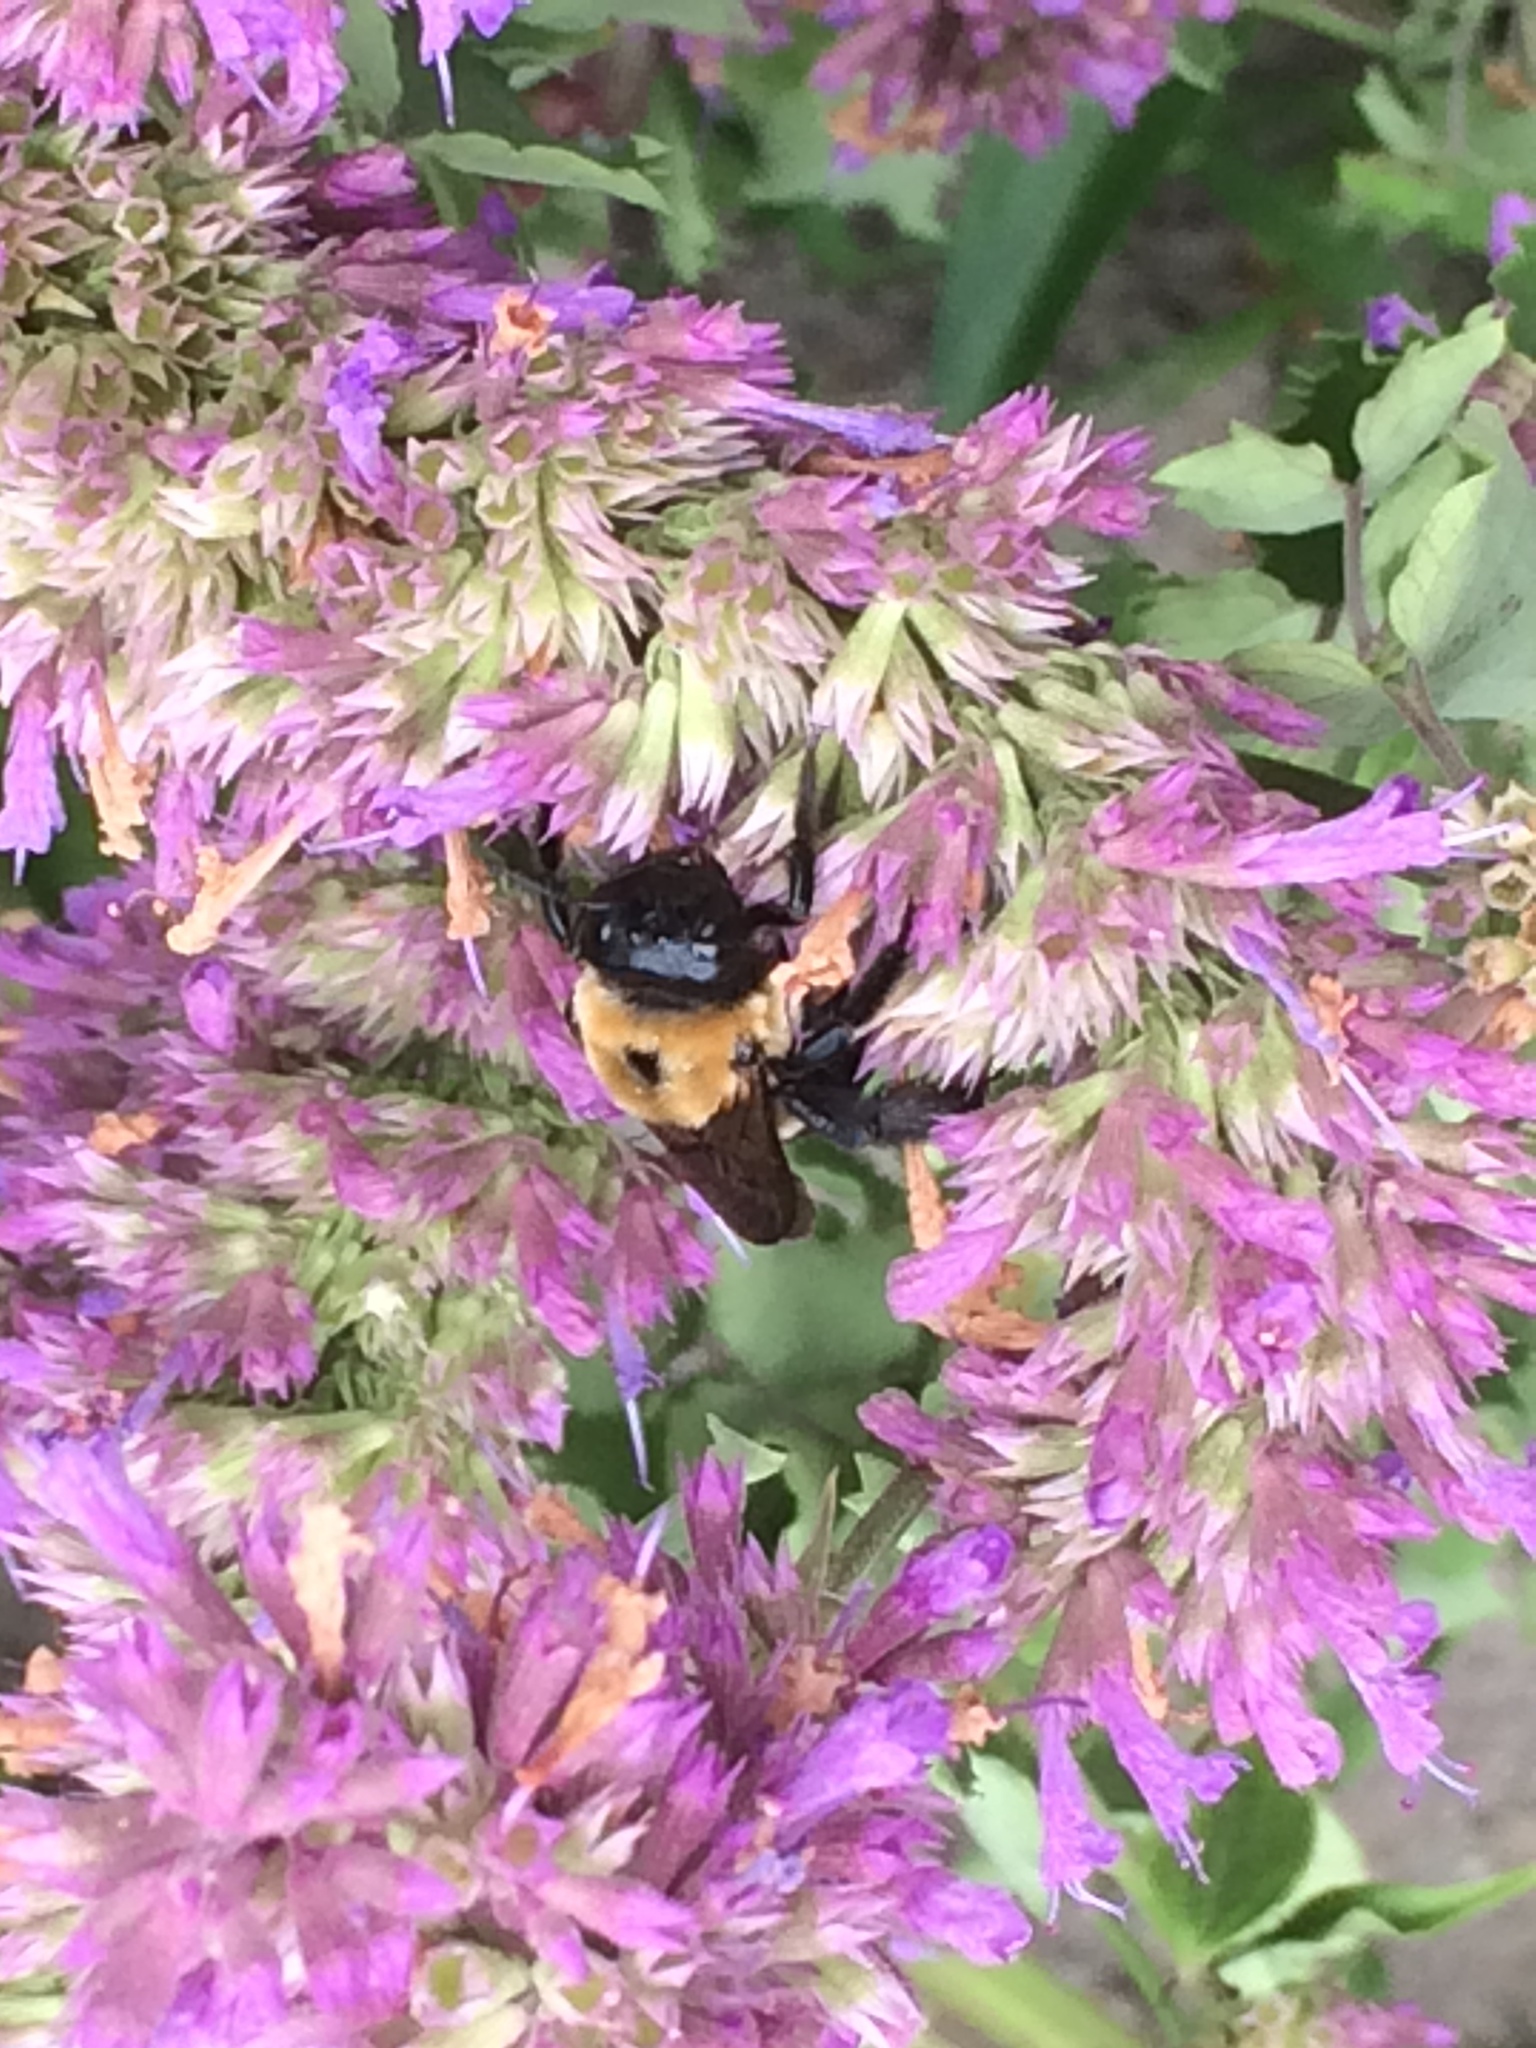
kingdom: Animalia
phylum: Arthropoda
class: Insecta
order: Hymenoptera
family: Apidae
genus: Xylocopa
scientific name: Xylocopa virginica
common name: Carpenter bee
